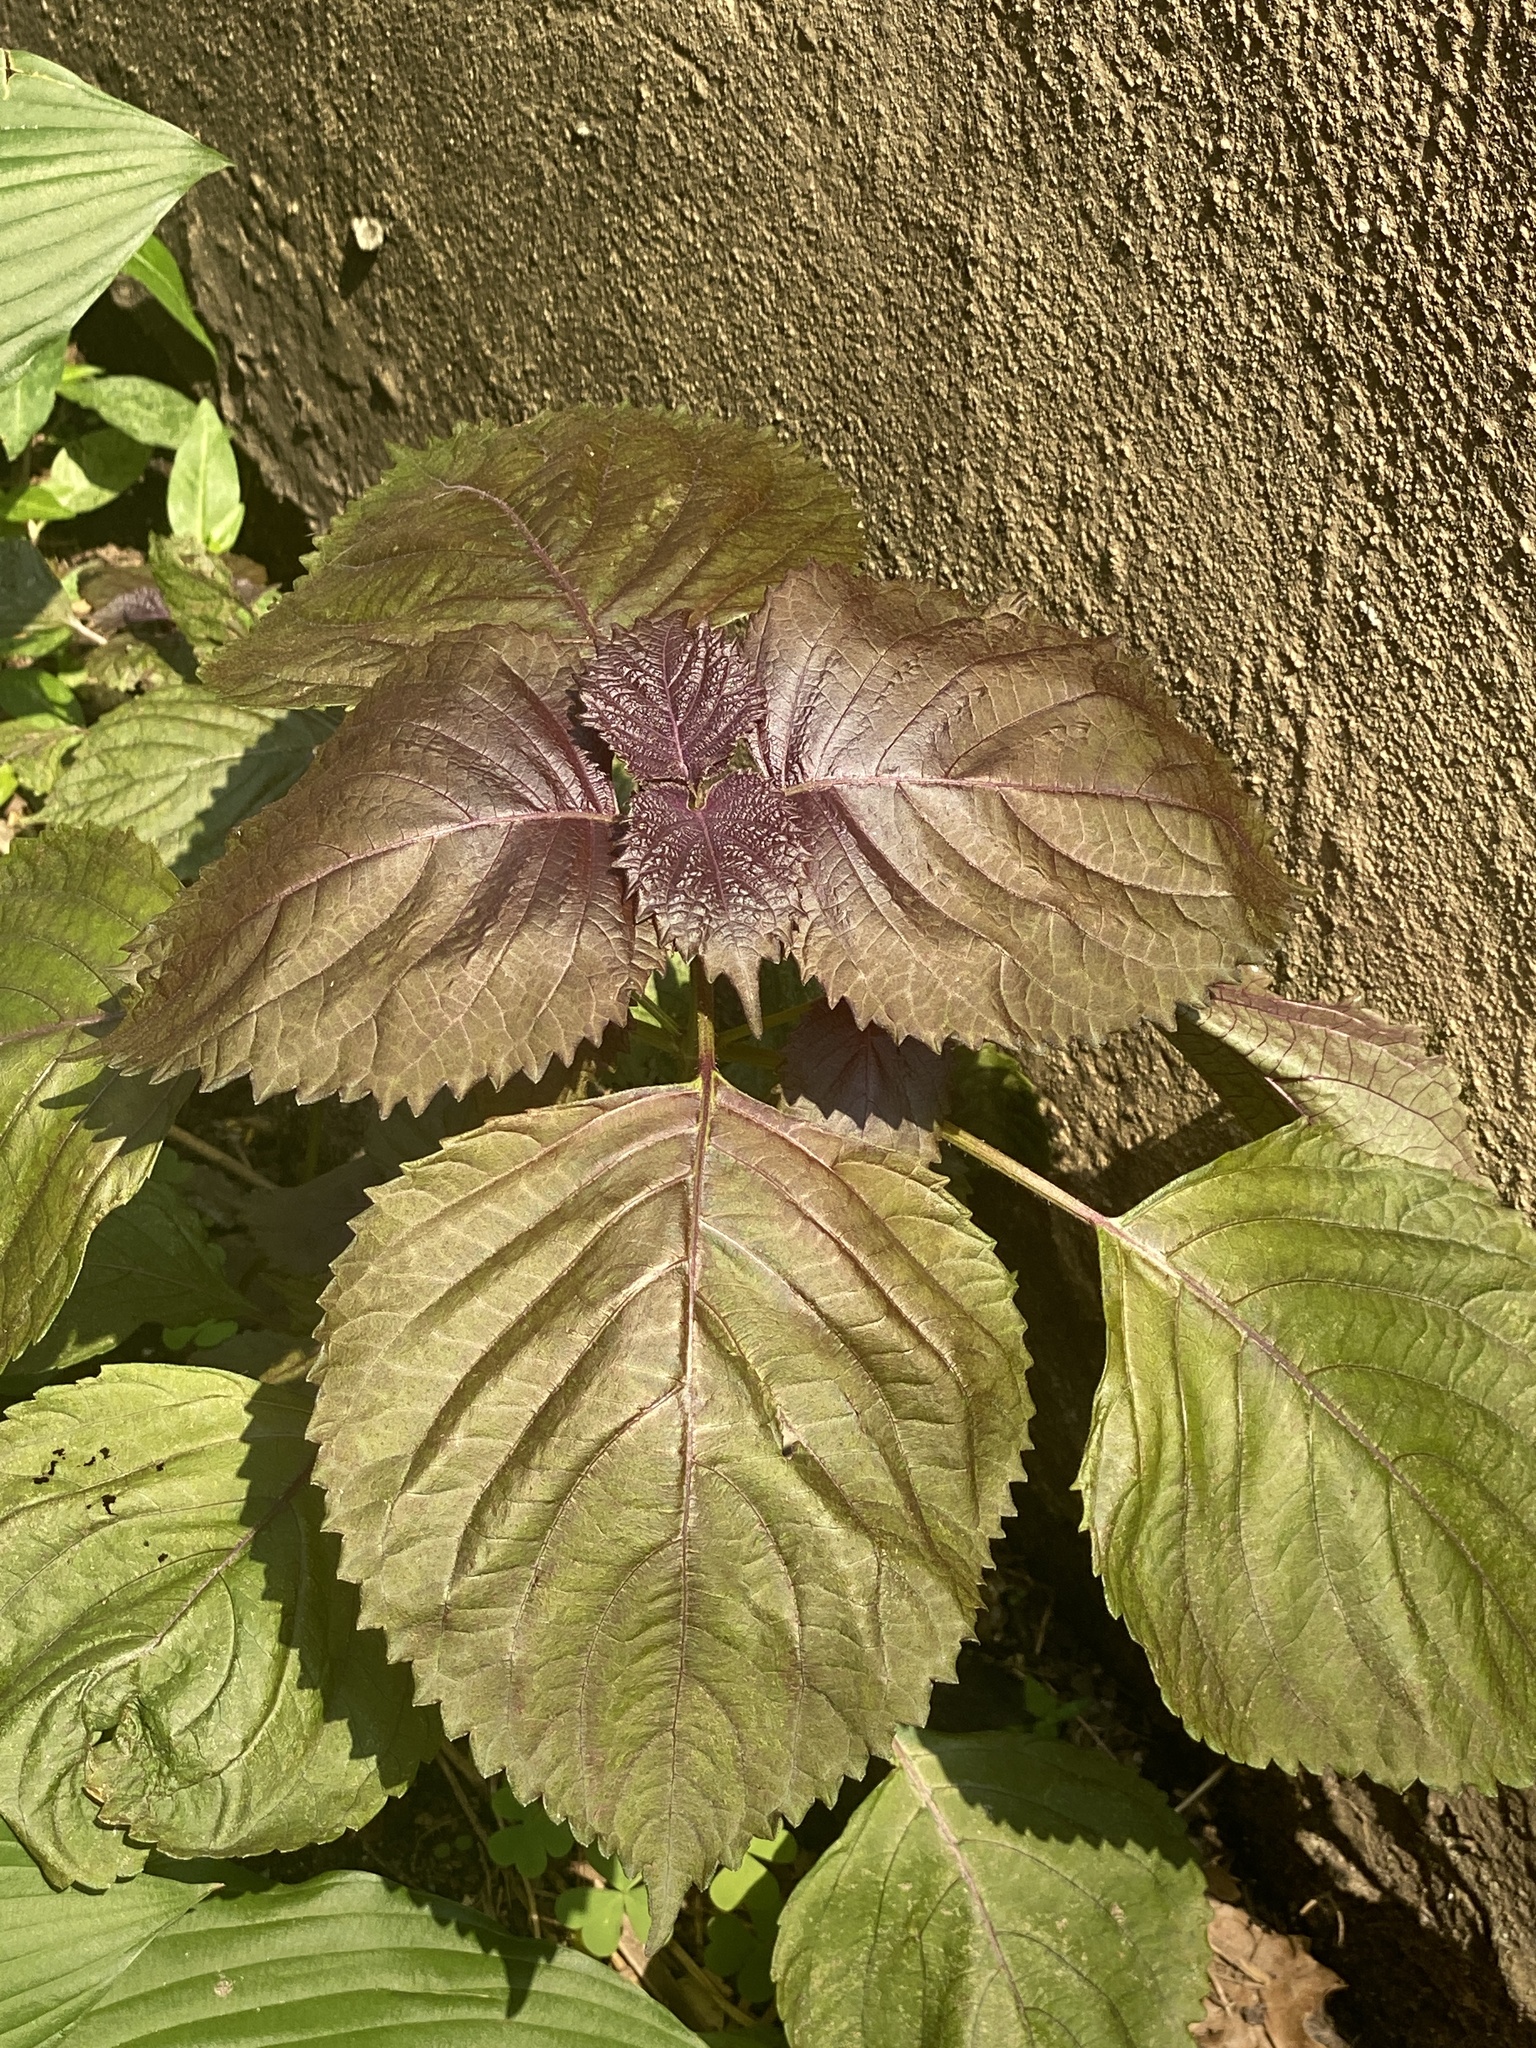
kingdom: Plantae
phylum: Tracheophyta
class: Magnoliopsida
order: Lamiales
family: Lamiaceae
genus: Perilla
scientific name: Perilla frutescens
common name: Perilla
